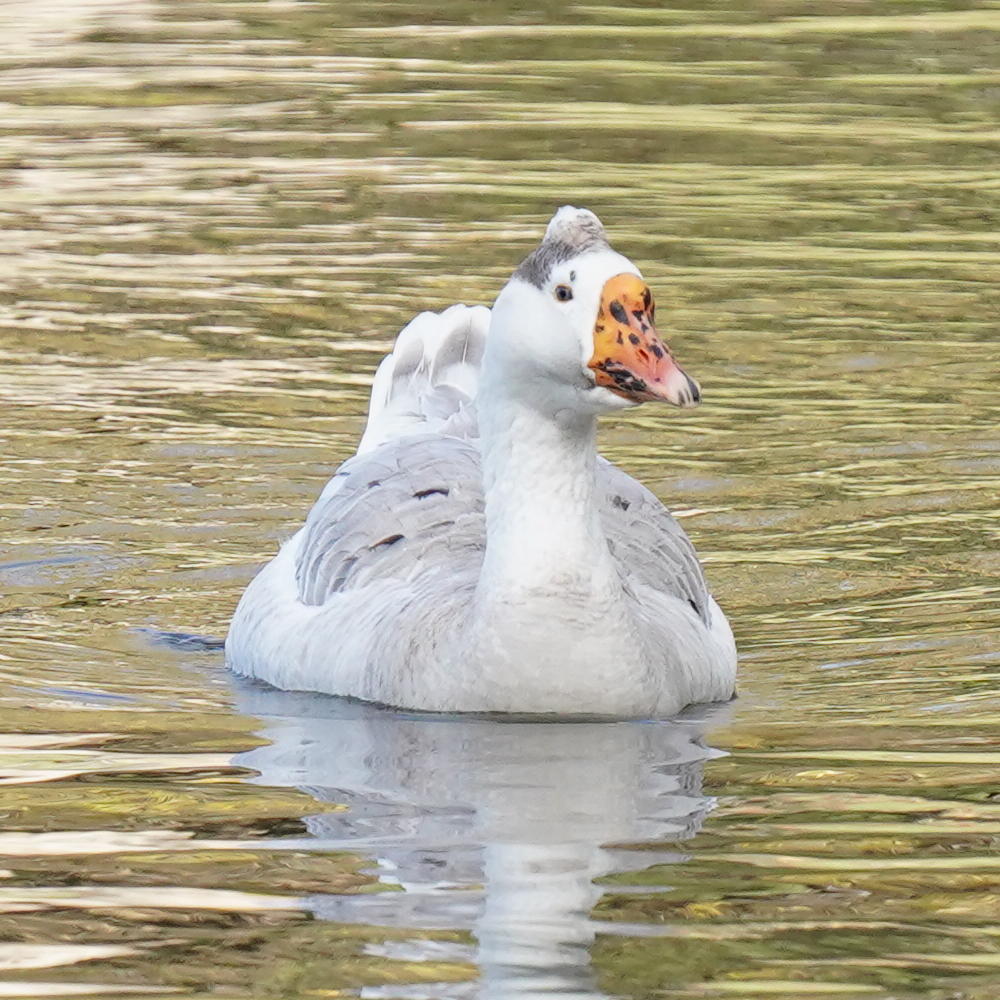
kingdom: Animalia
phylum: Chordata
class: Aves
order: Anseriformes
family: Anatidae
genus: Anser
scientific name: Anser
